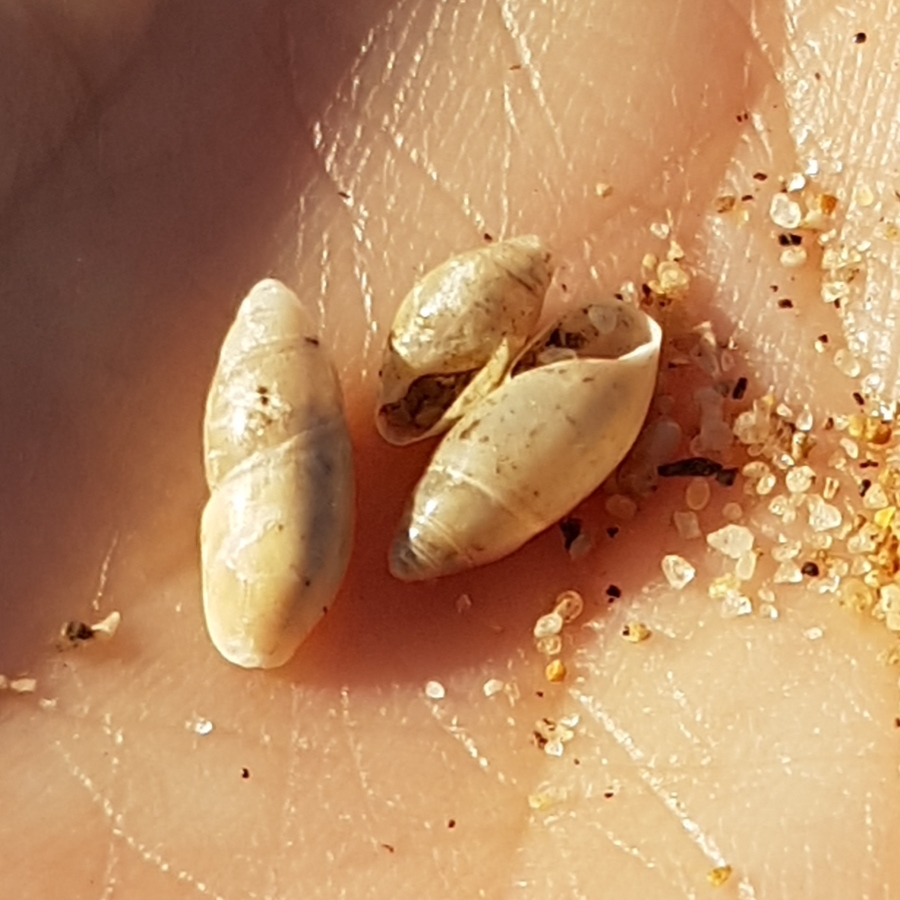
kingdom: Animalia
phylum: Mollusca
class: Gastropoda
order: Stylommatophora
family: Ferussaciidae
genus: Ferussacia
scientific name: Ferussacia folliculum
